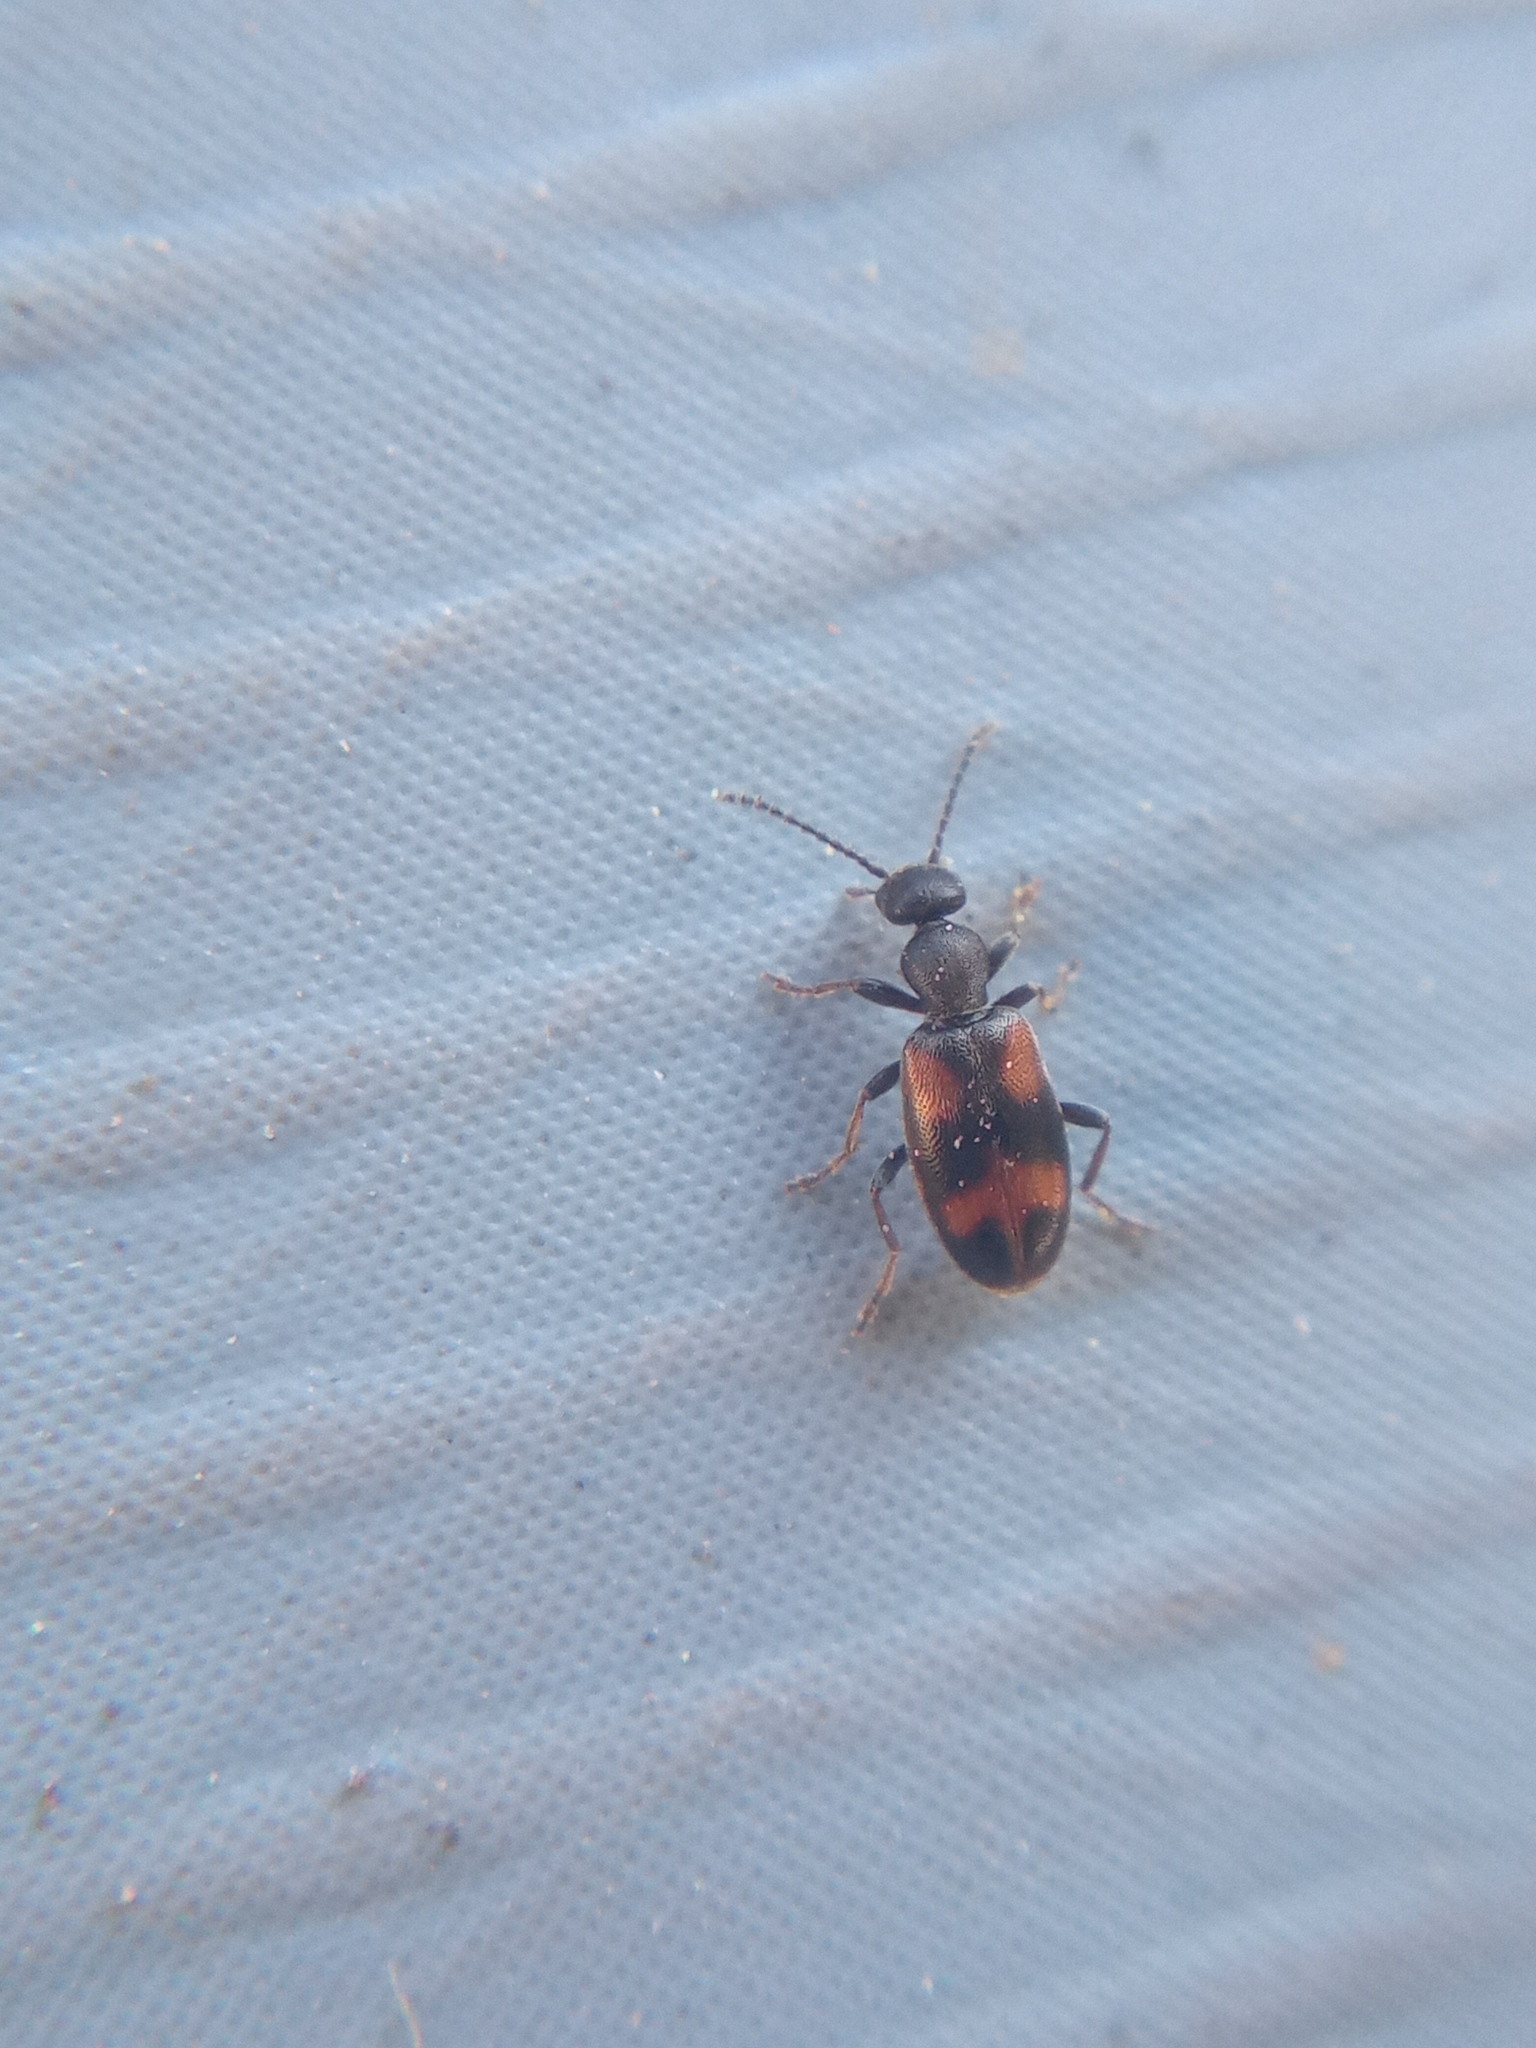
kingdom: Animalia
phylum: Arthropoda
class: Insecta
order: Coleoptera
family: Anthicidae
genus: Anthicus
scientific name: Anthicus antherinus
